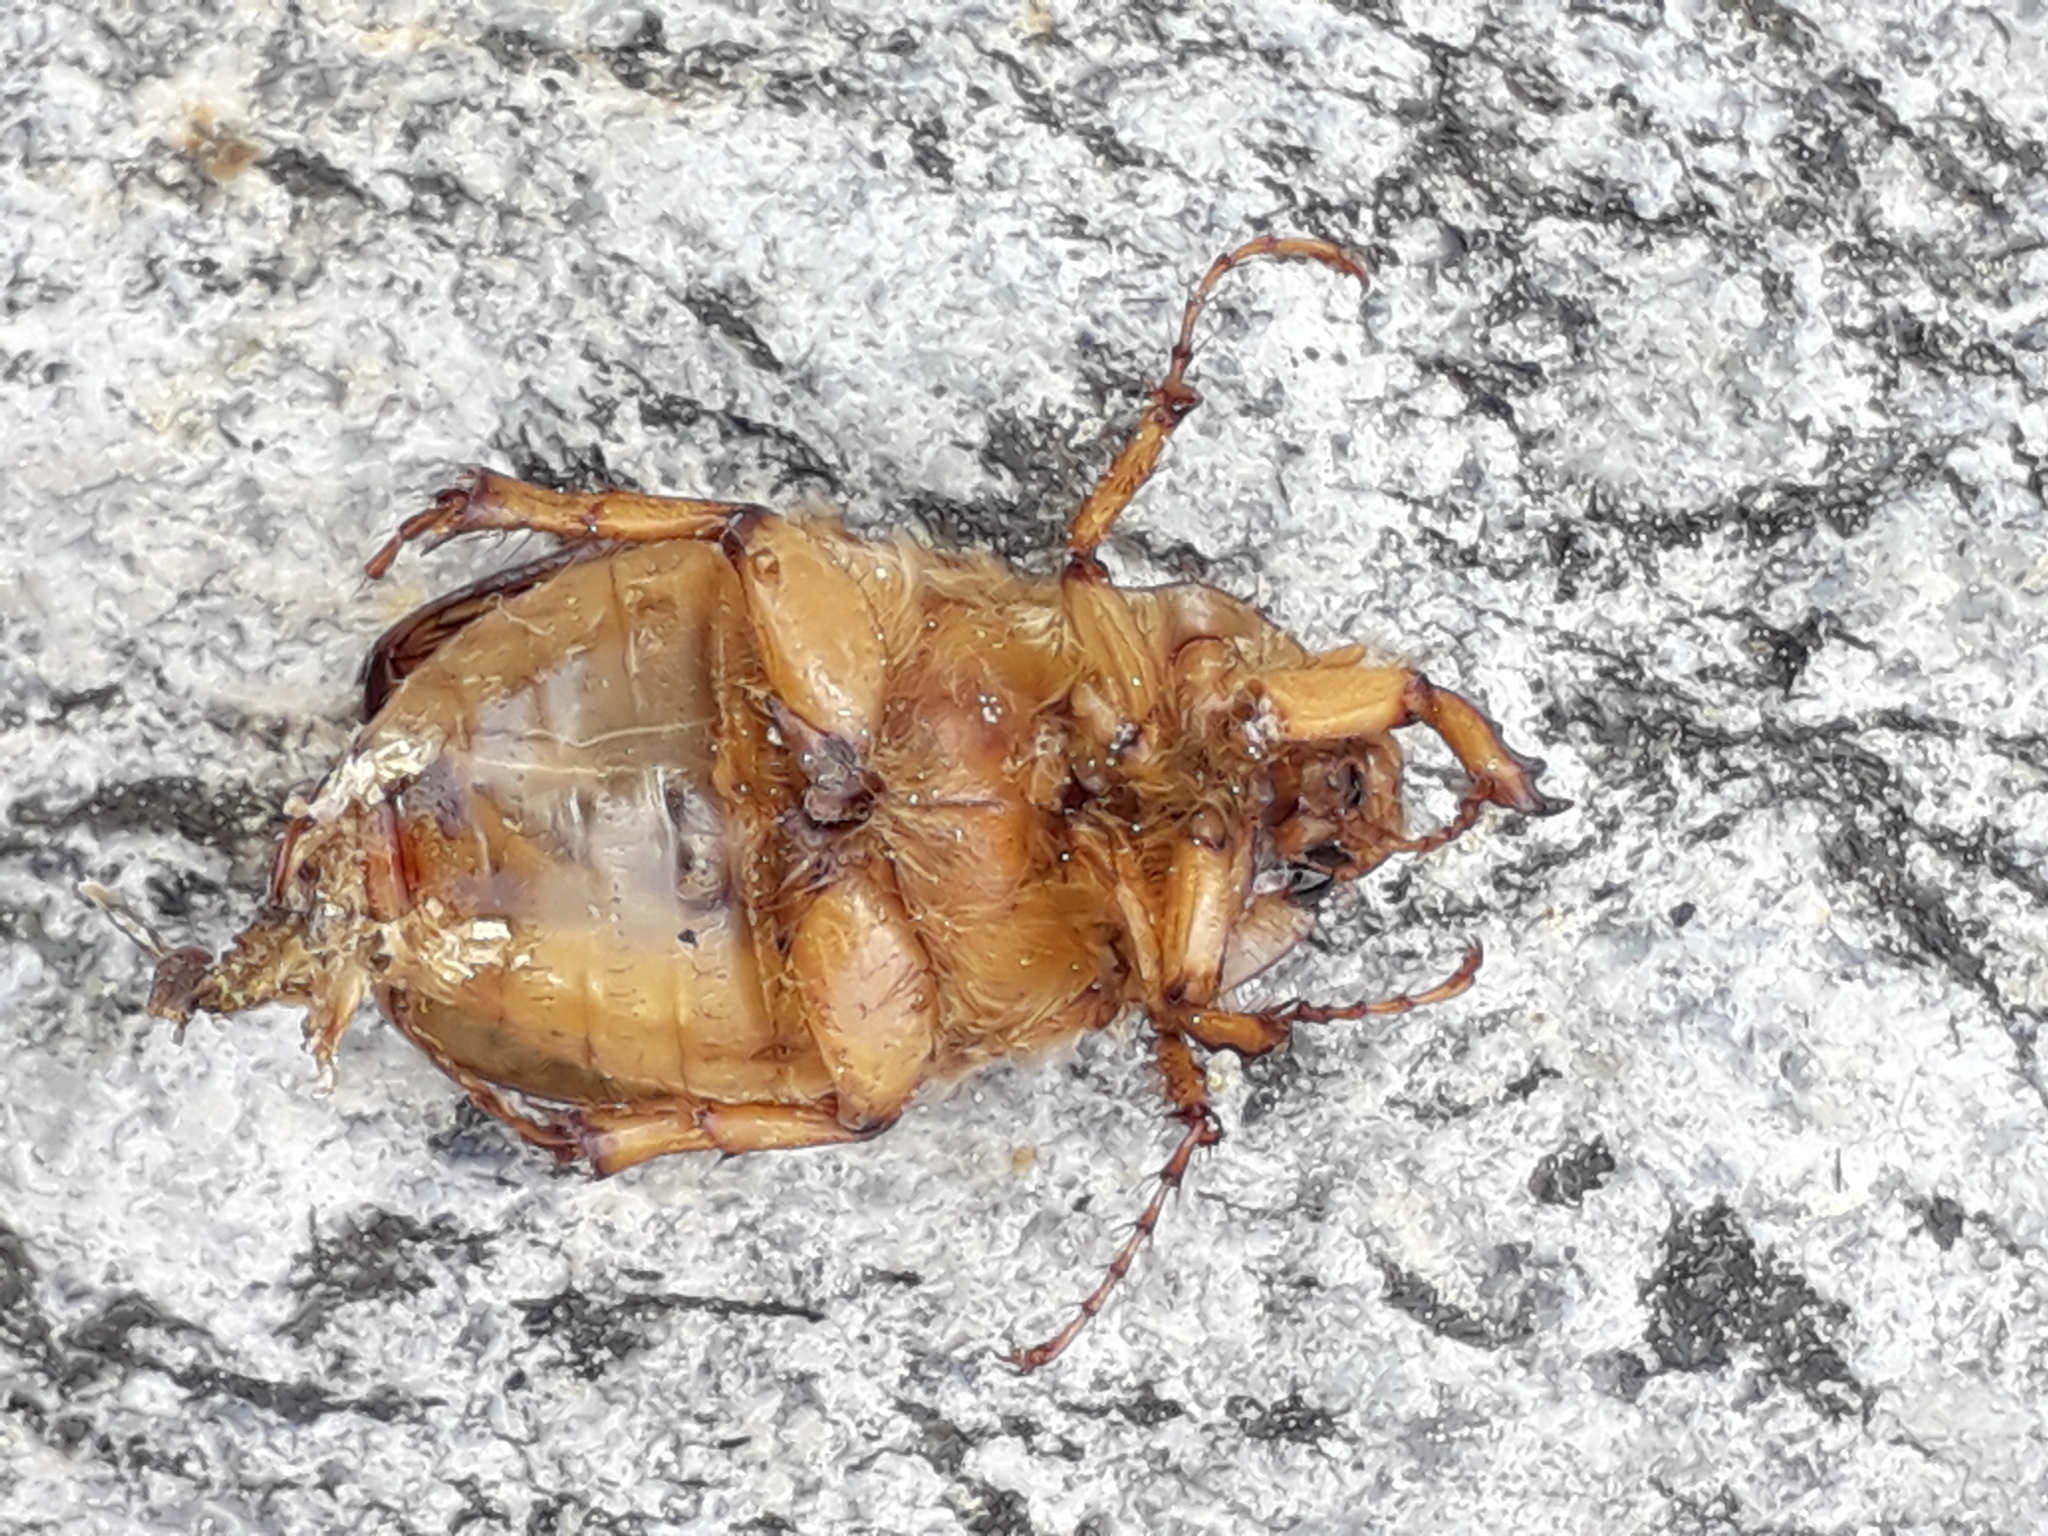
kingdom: Animalia
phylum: Arthropoda
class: Insecta
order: Coleoptera
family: Scarabaeidae
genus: Rhizotrogus
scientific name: Rhizotrogus aestivus
